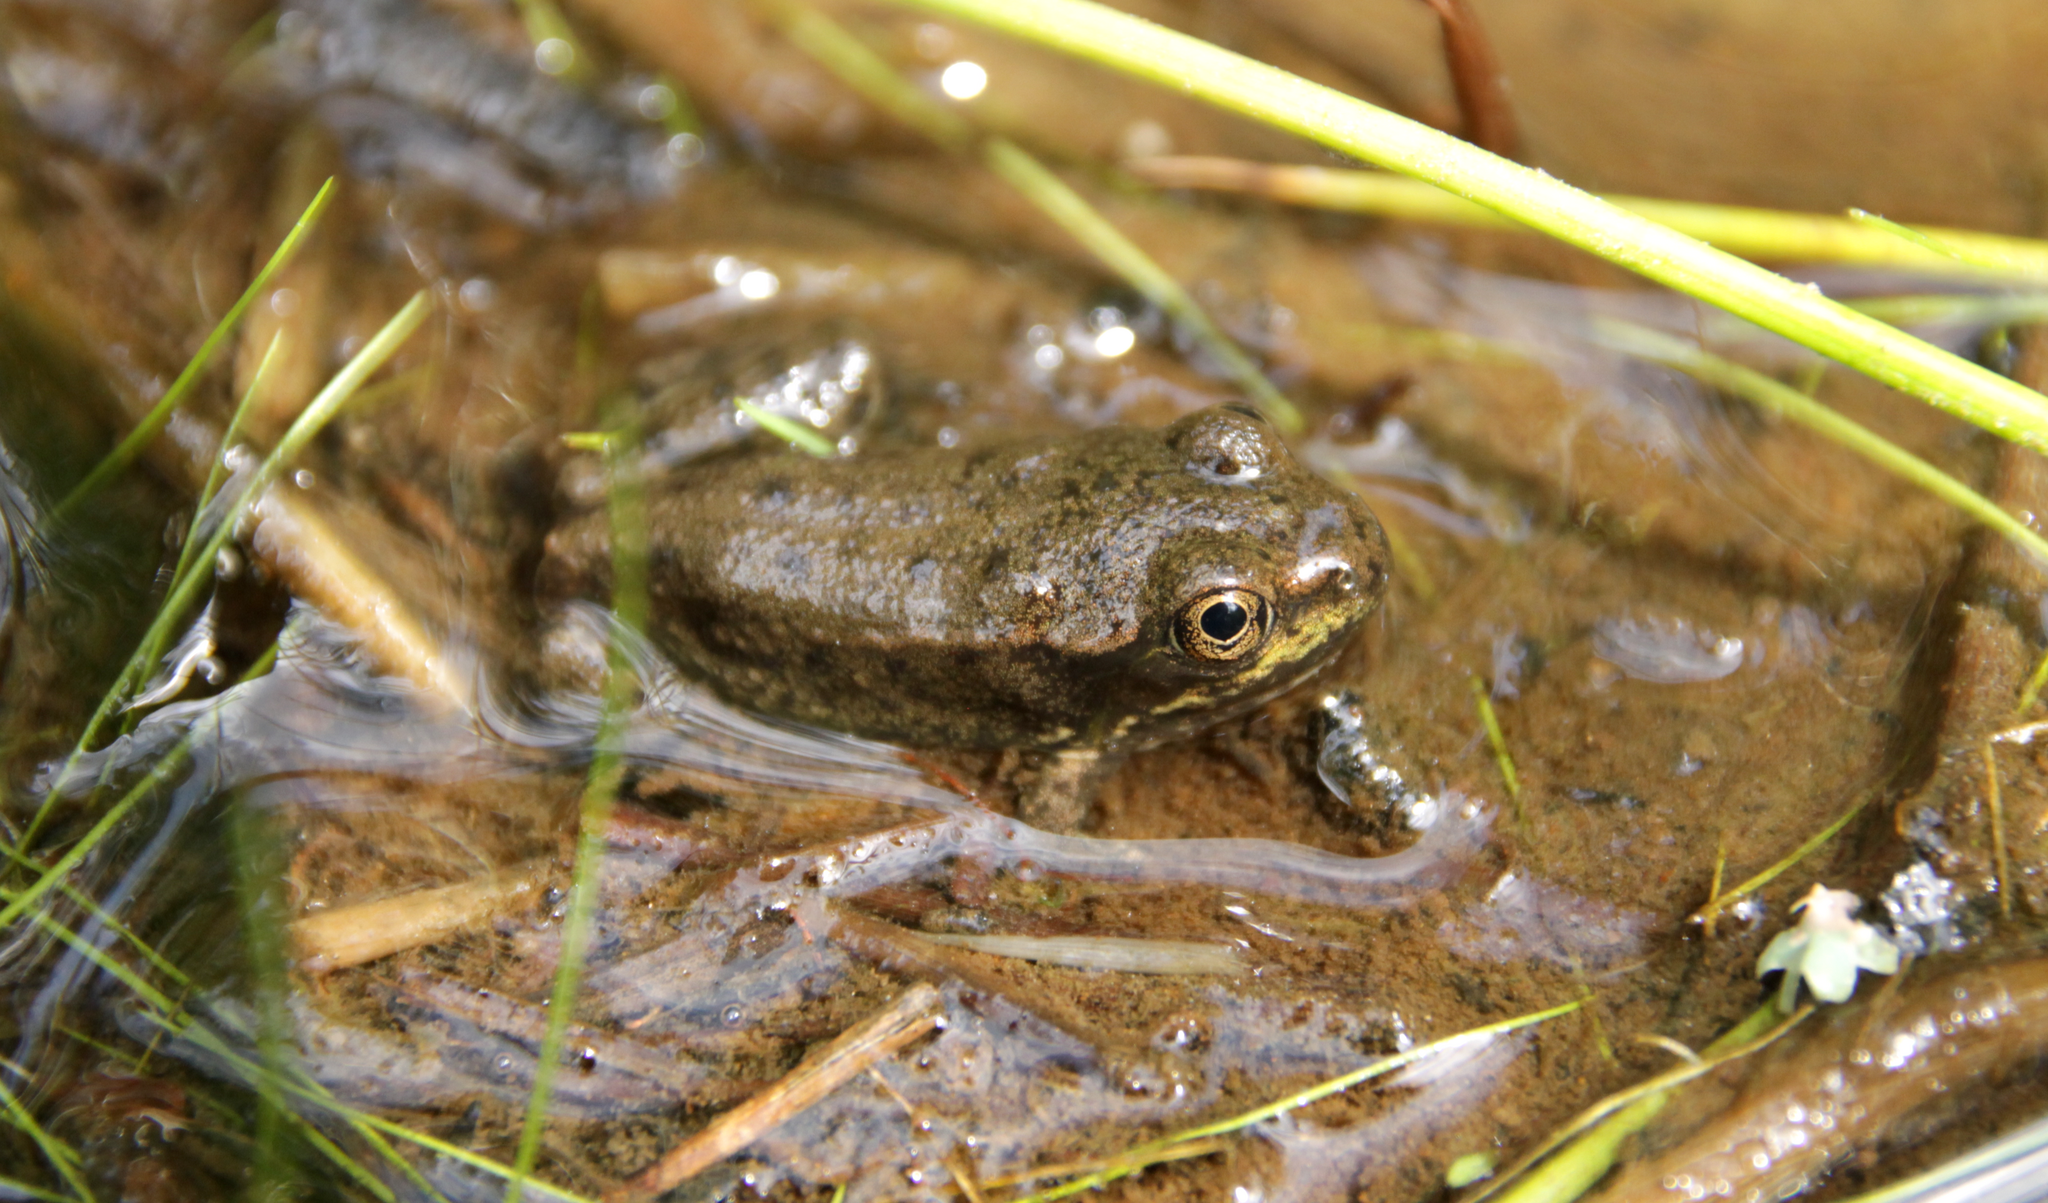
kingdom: Animalia
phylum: Chordata
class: Amphibia
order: Anura
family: Ranidae
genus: Lithobates
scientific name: Lithobates clamitans
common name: Green frog
